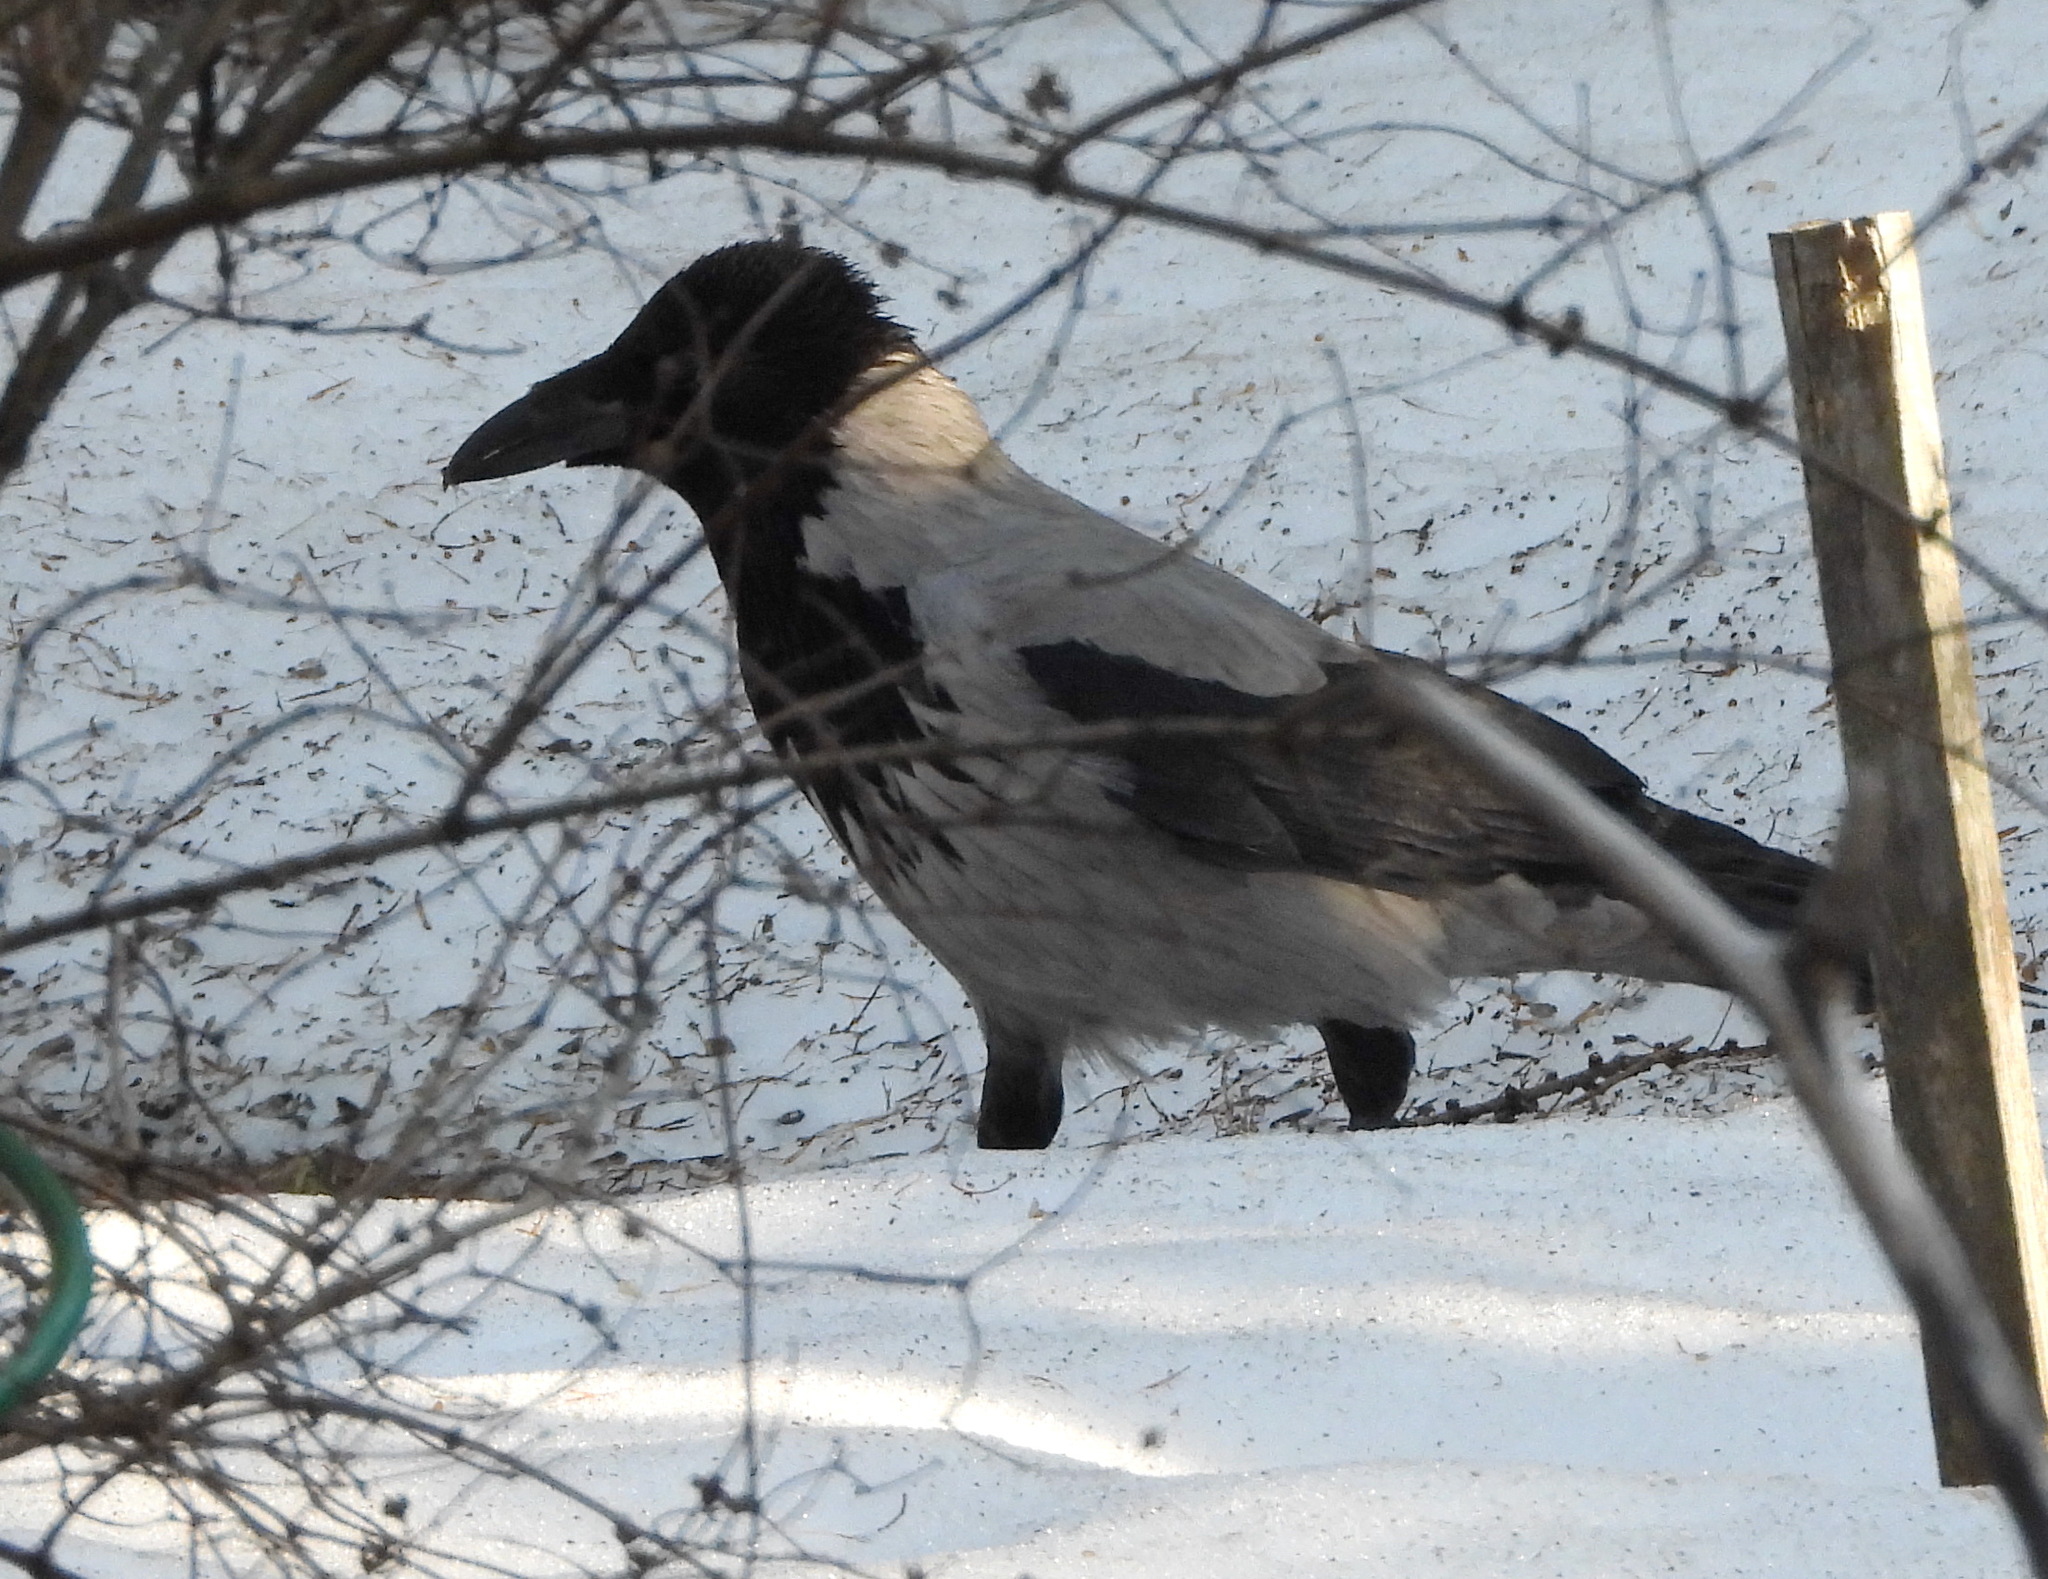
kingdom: Animalia
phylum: Chordata
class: Aves
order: Passeriformes
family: Corvidae
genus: Corvus
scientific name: Corvus cornix
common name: Hooded crow
